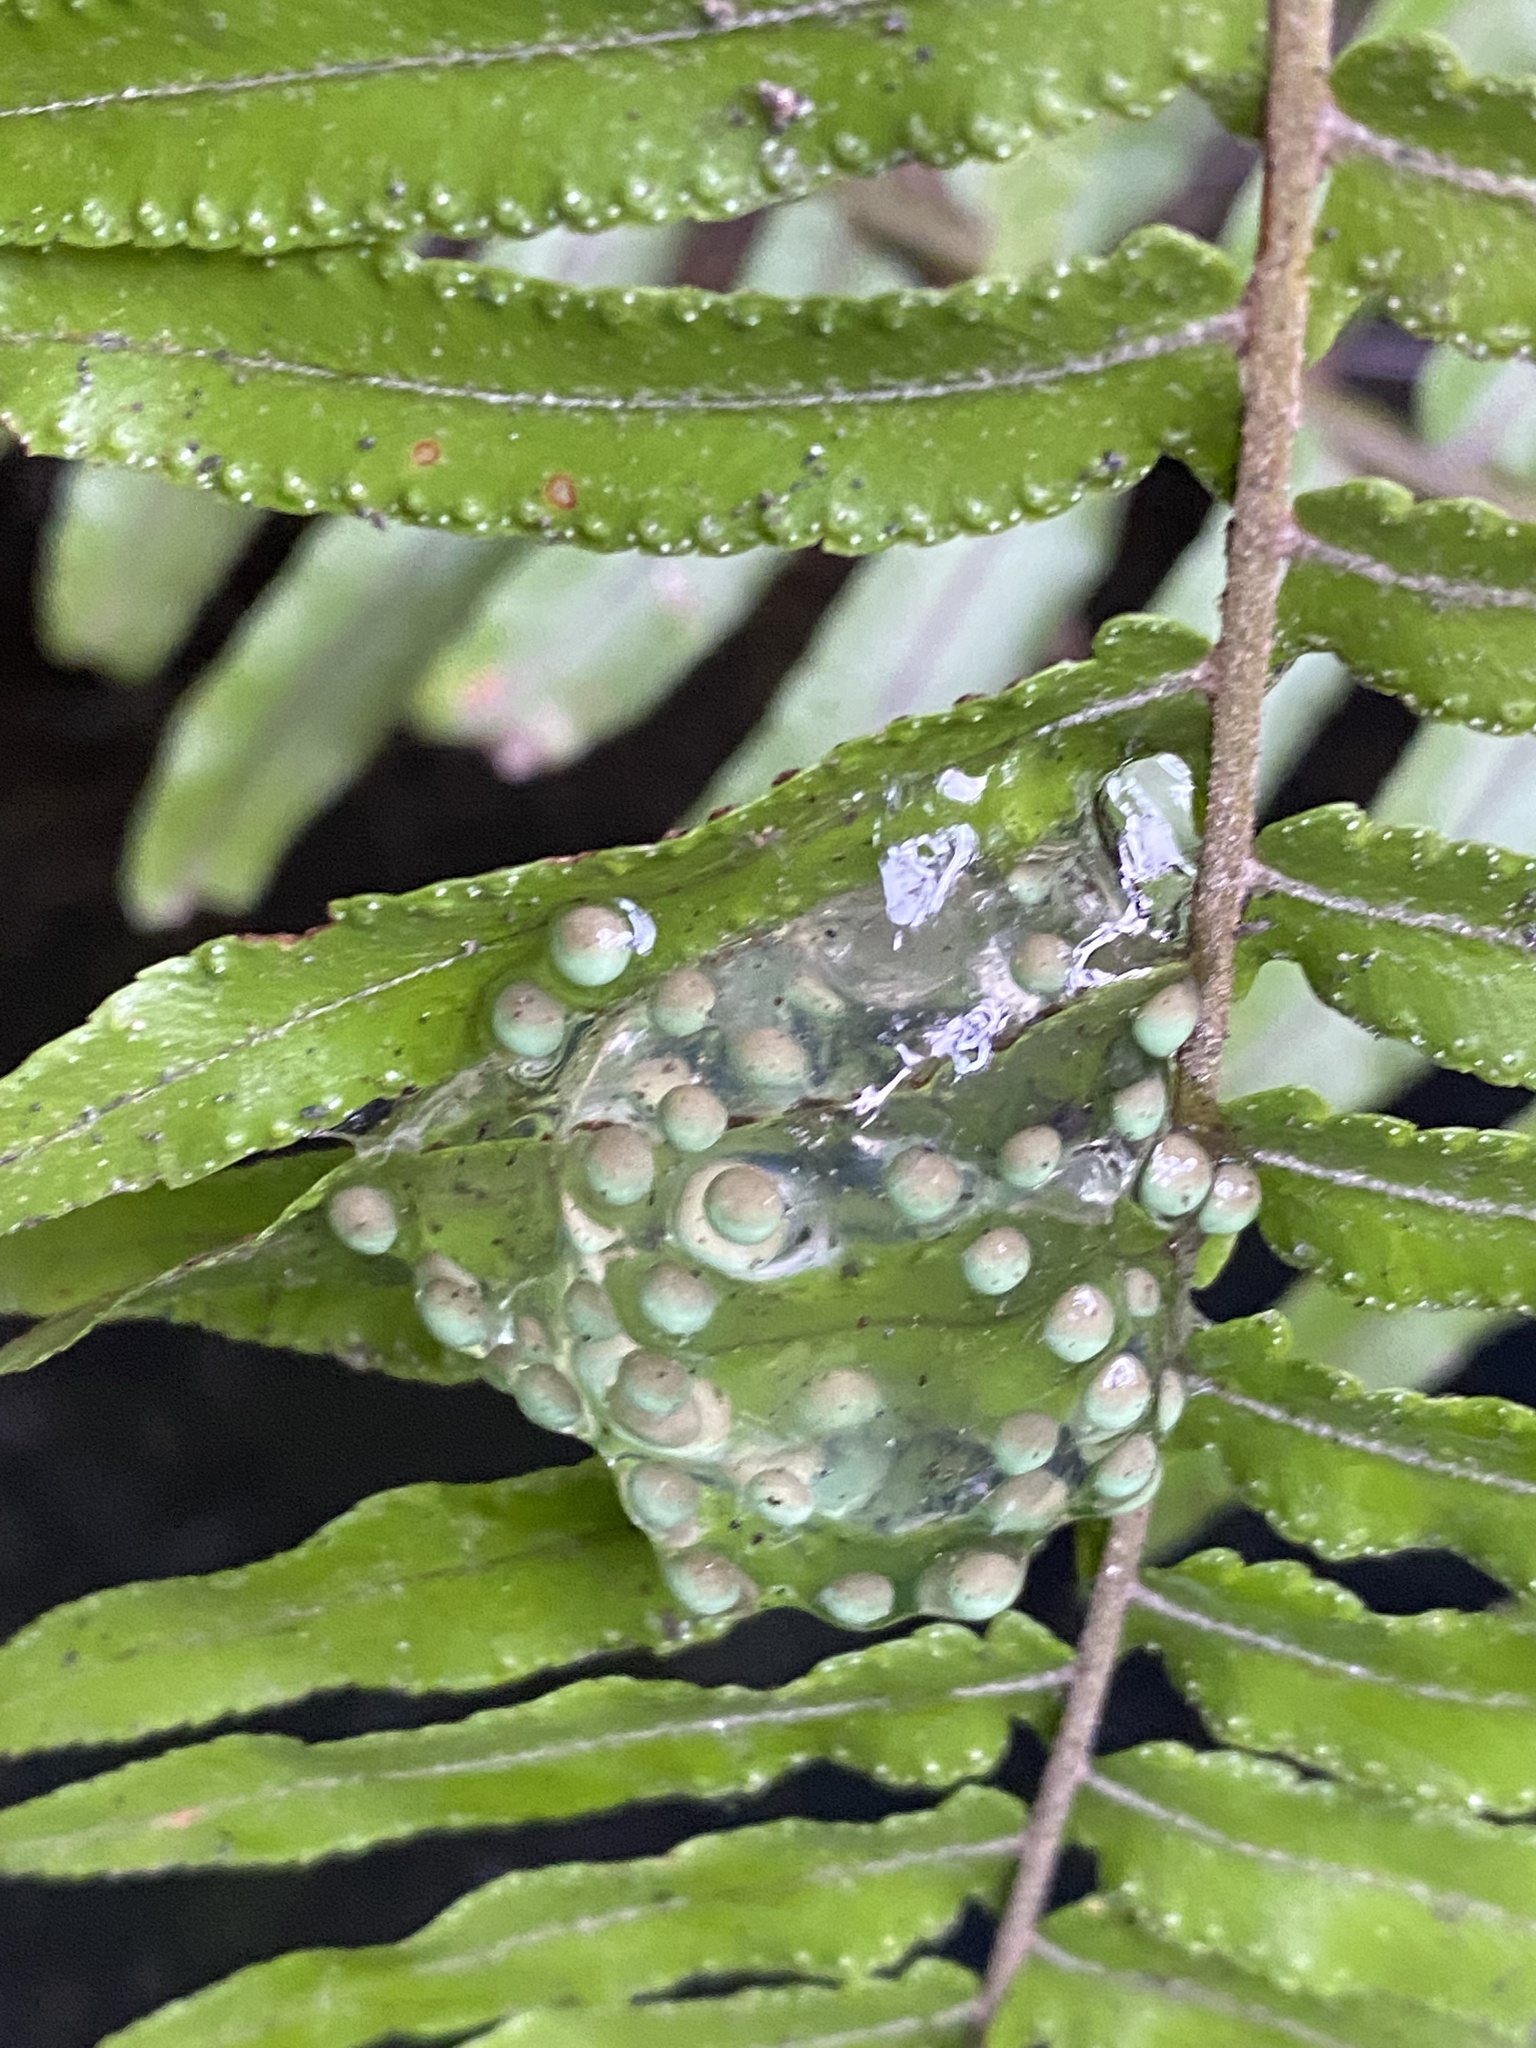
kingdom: Animalia
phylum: Chordata
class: Amphibia
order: Anura
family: Phyllomedusidae
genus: Agalychnis
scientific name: Agalychnis moreletii
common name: Black-eyed leaf frog
